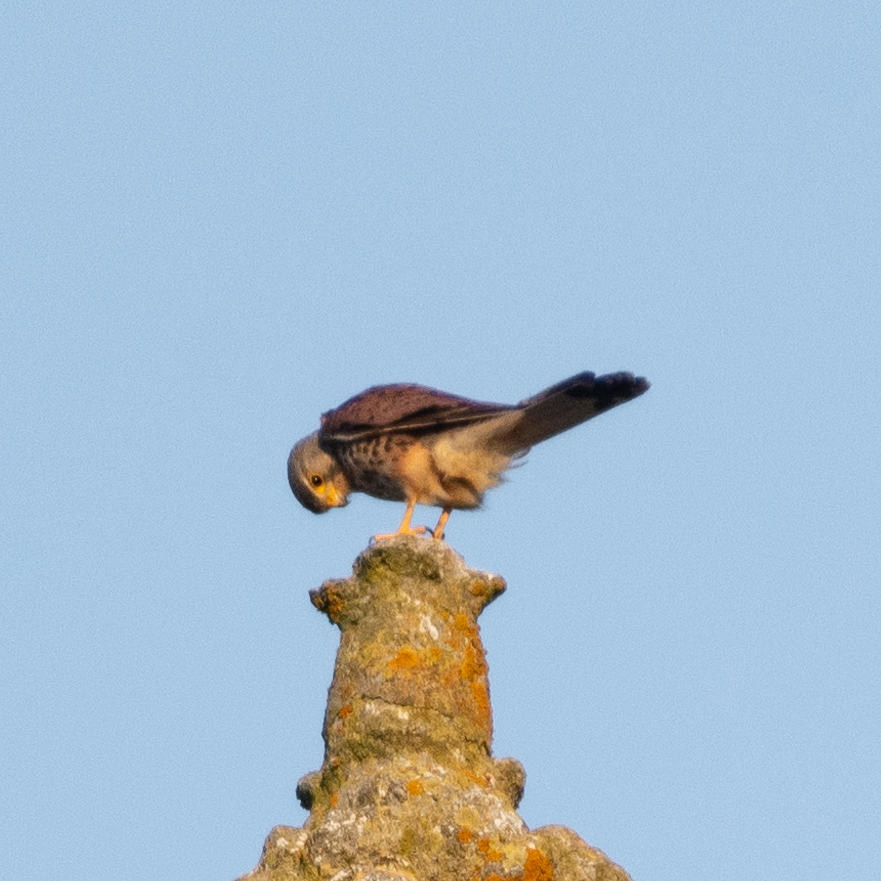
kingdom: Animalia
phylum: Chordata
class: Aves
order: Falconiformes
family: Falconidae
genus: Falco
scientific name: Falco tinnunculus
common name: Common kestrel
